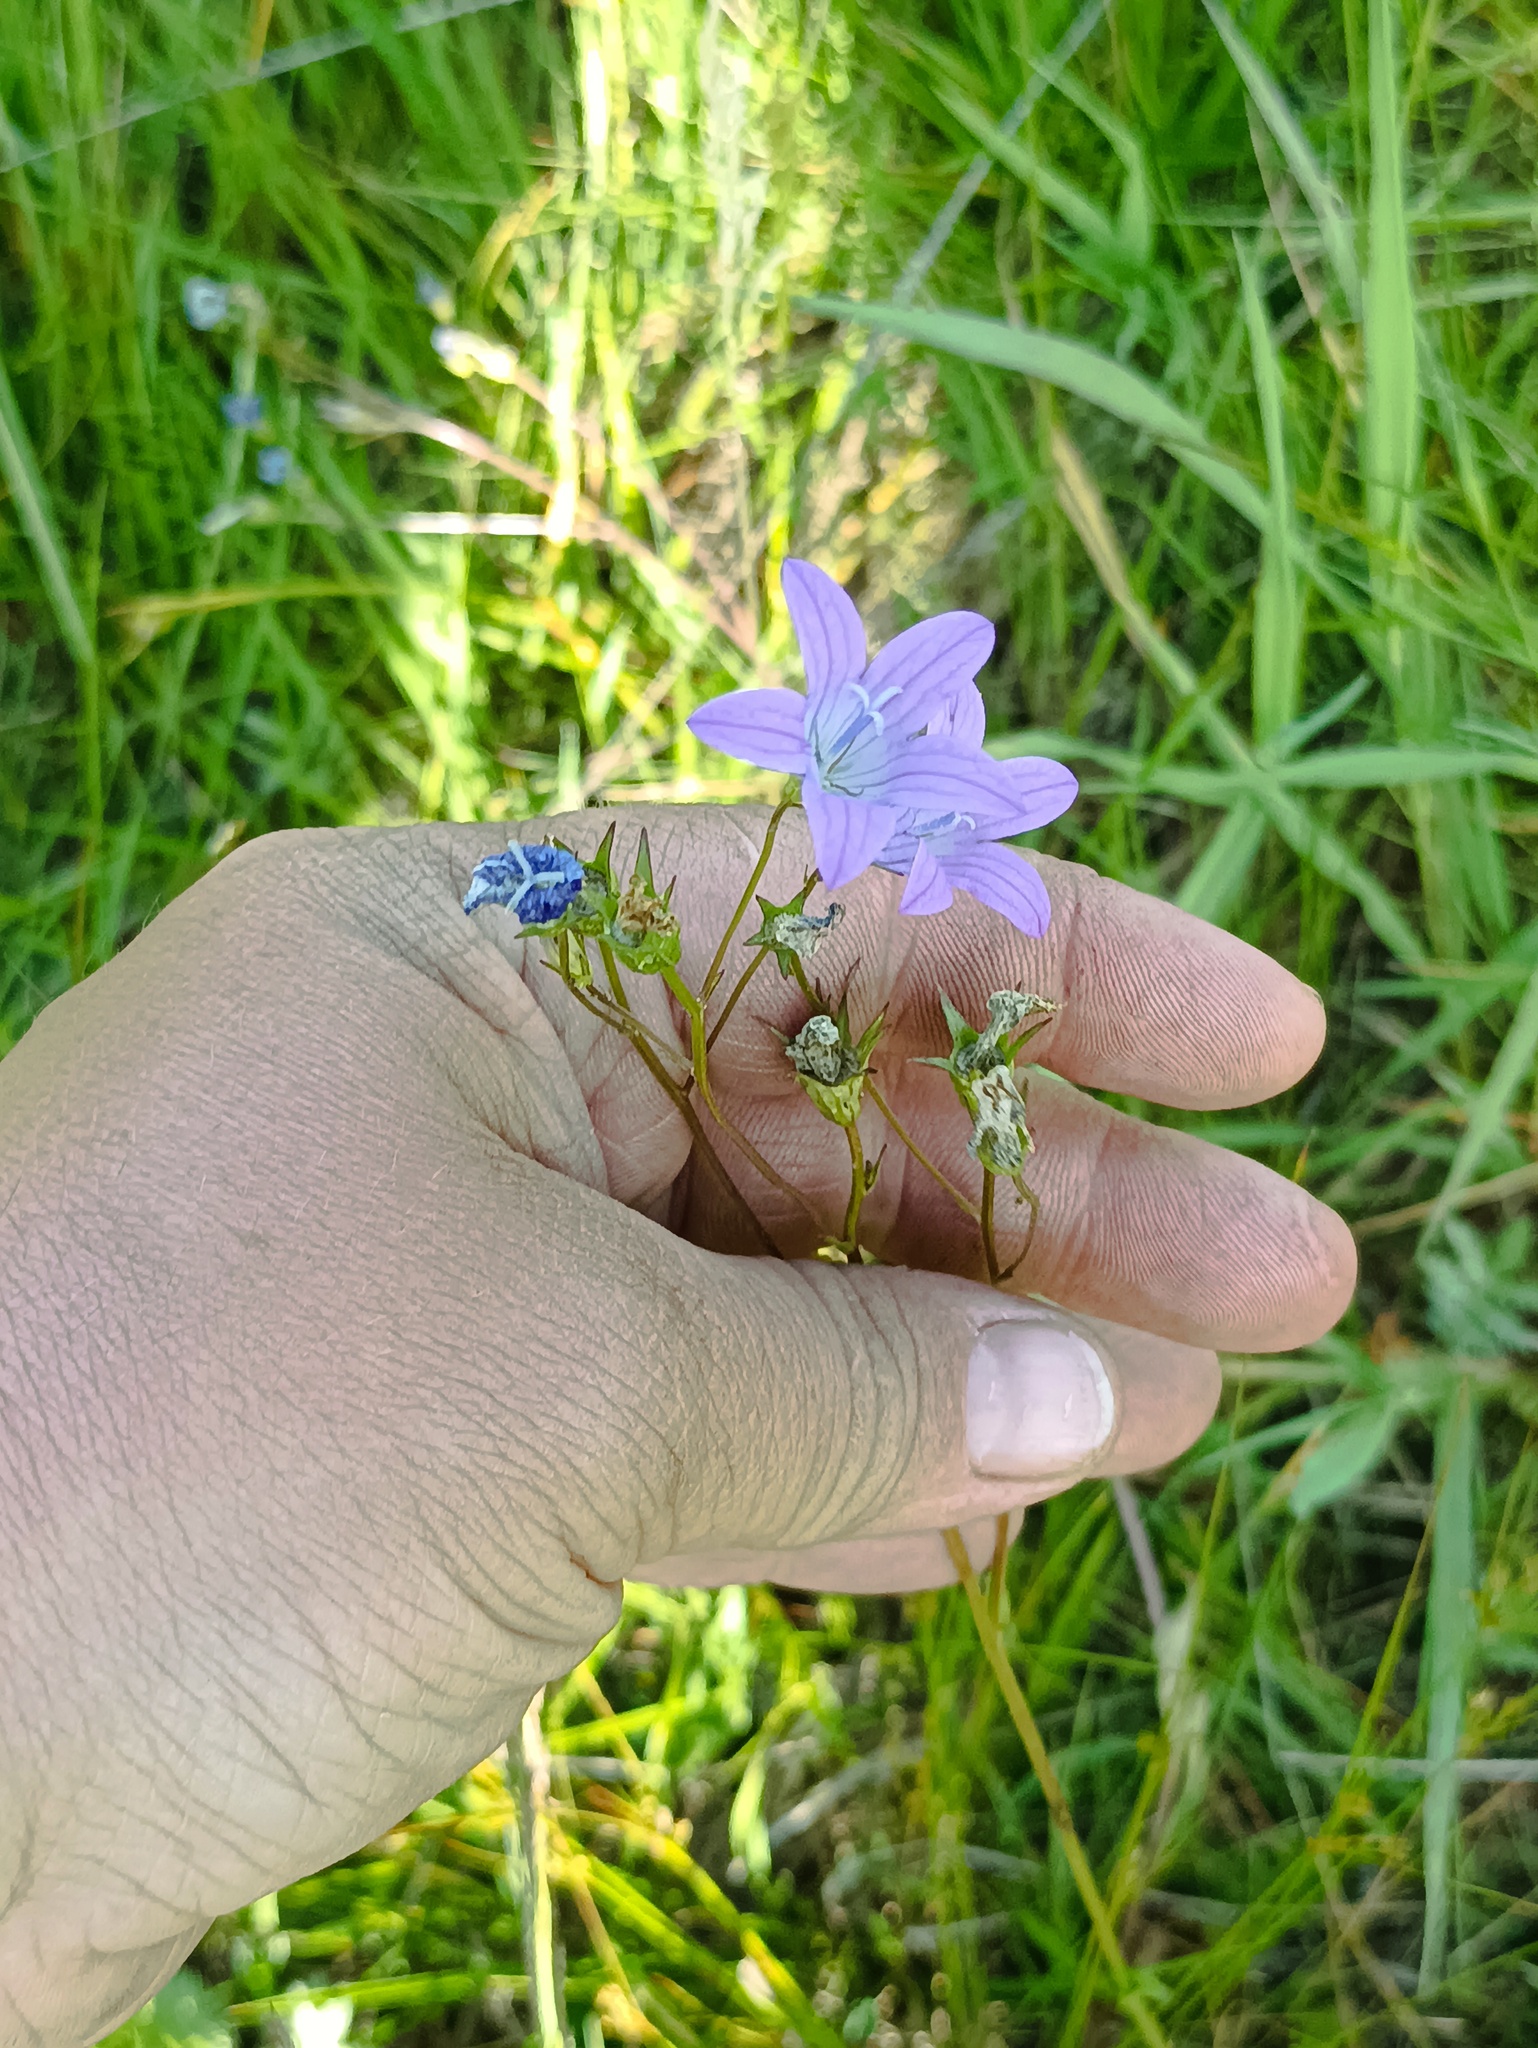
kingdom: Plantae
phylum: Tracheophyta
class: Magnoliopsida
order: Asterales
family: Campanulaceae
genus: Campanula
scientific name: Campanula patula
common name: Spreading bellflower
